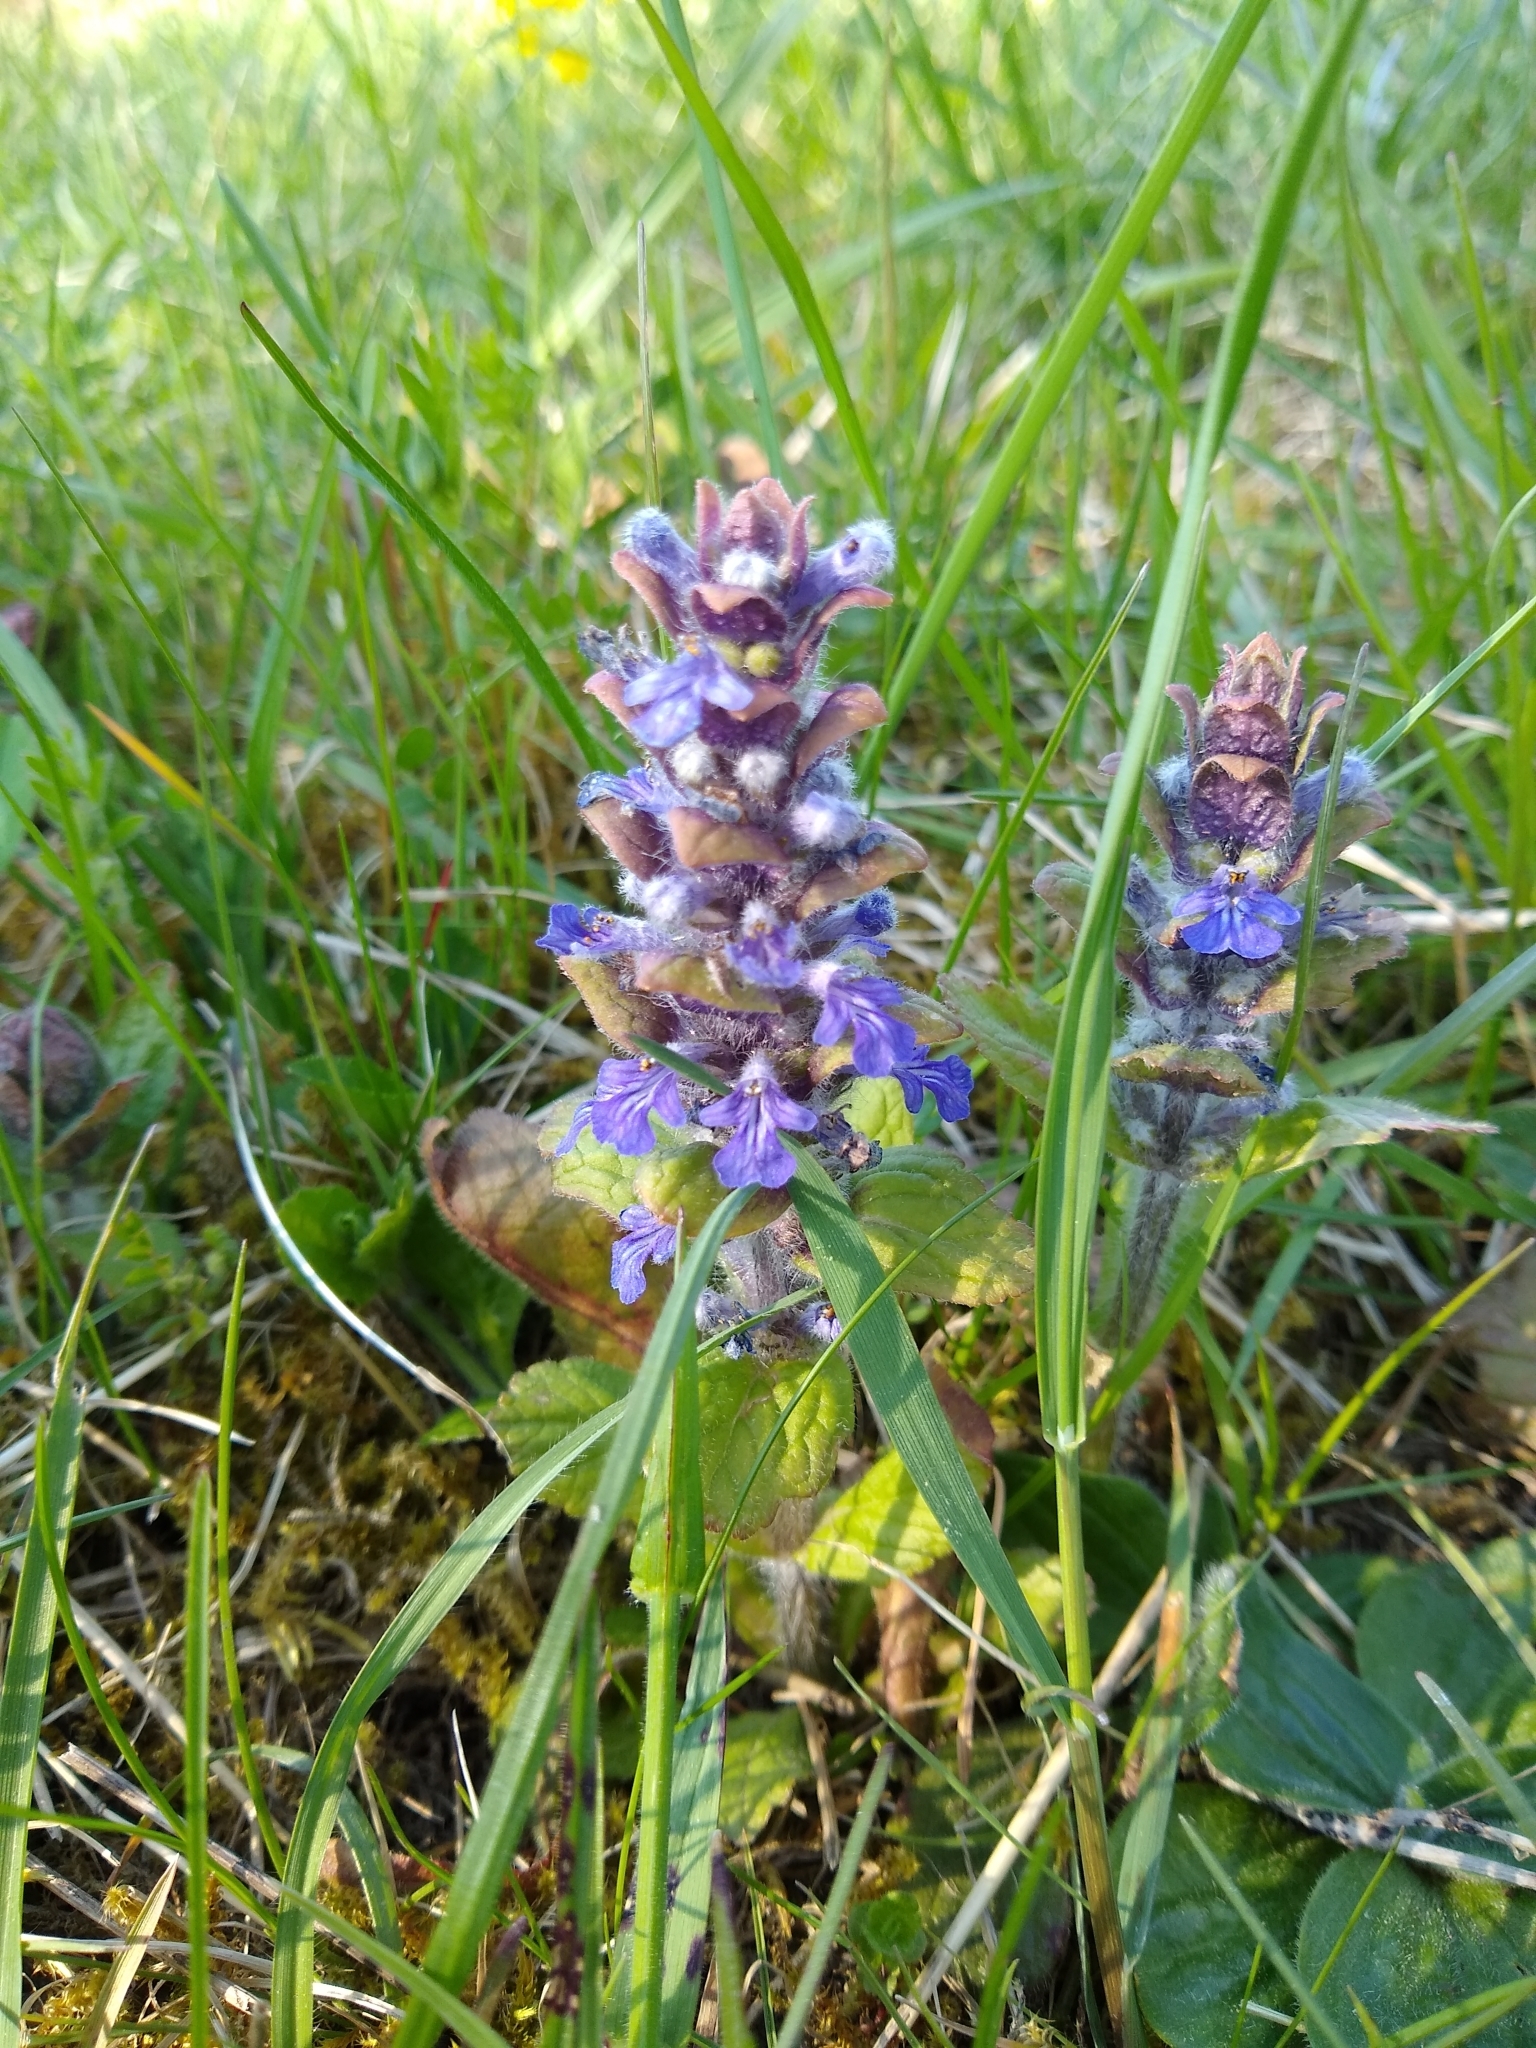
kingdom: Plantae
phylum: Tracheophyta
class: Magnoliopsida
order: Lamiales
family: Lamiaceae
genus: Ajuga
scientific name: Ajuga reptans
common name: Bugle
